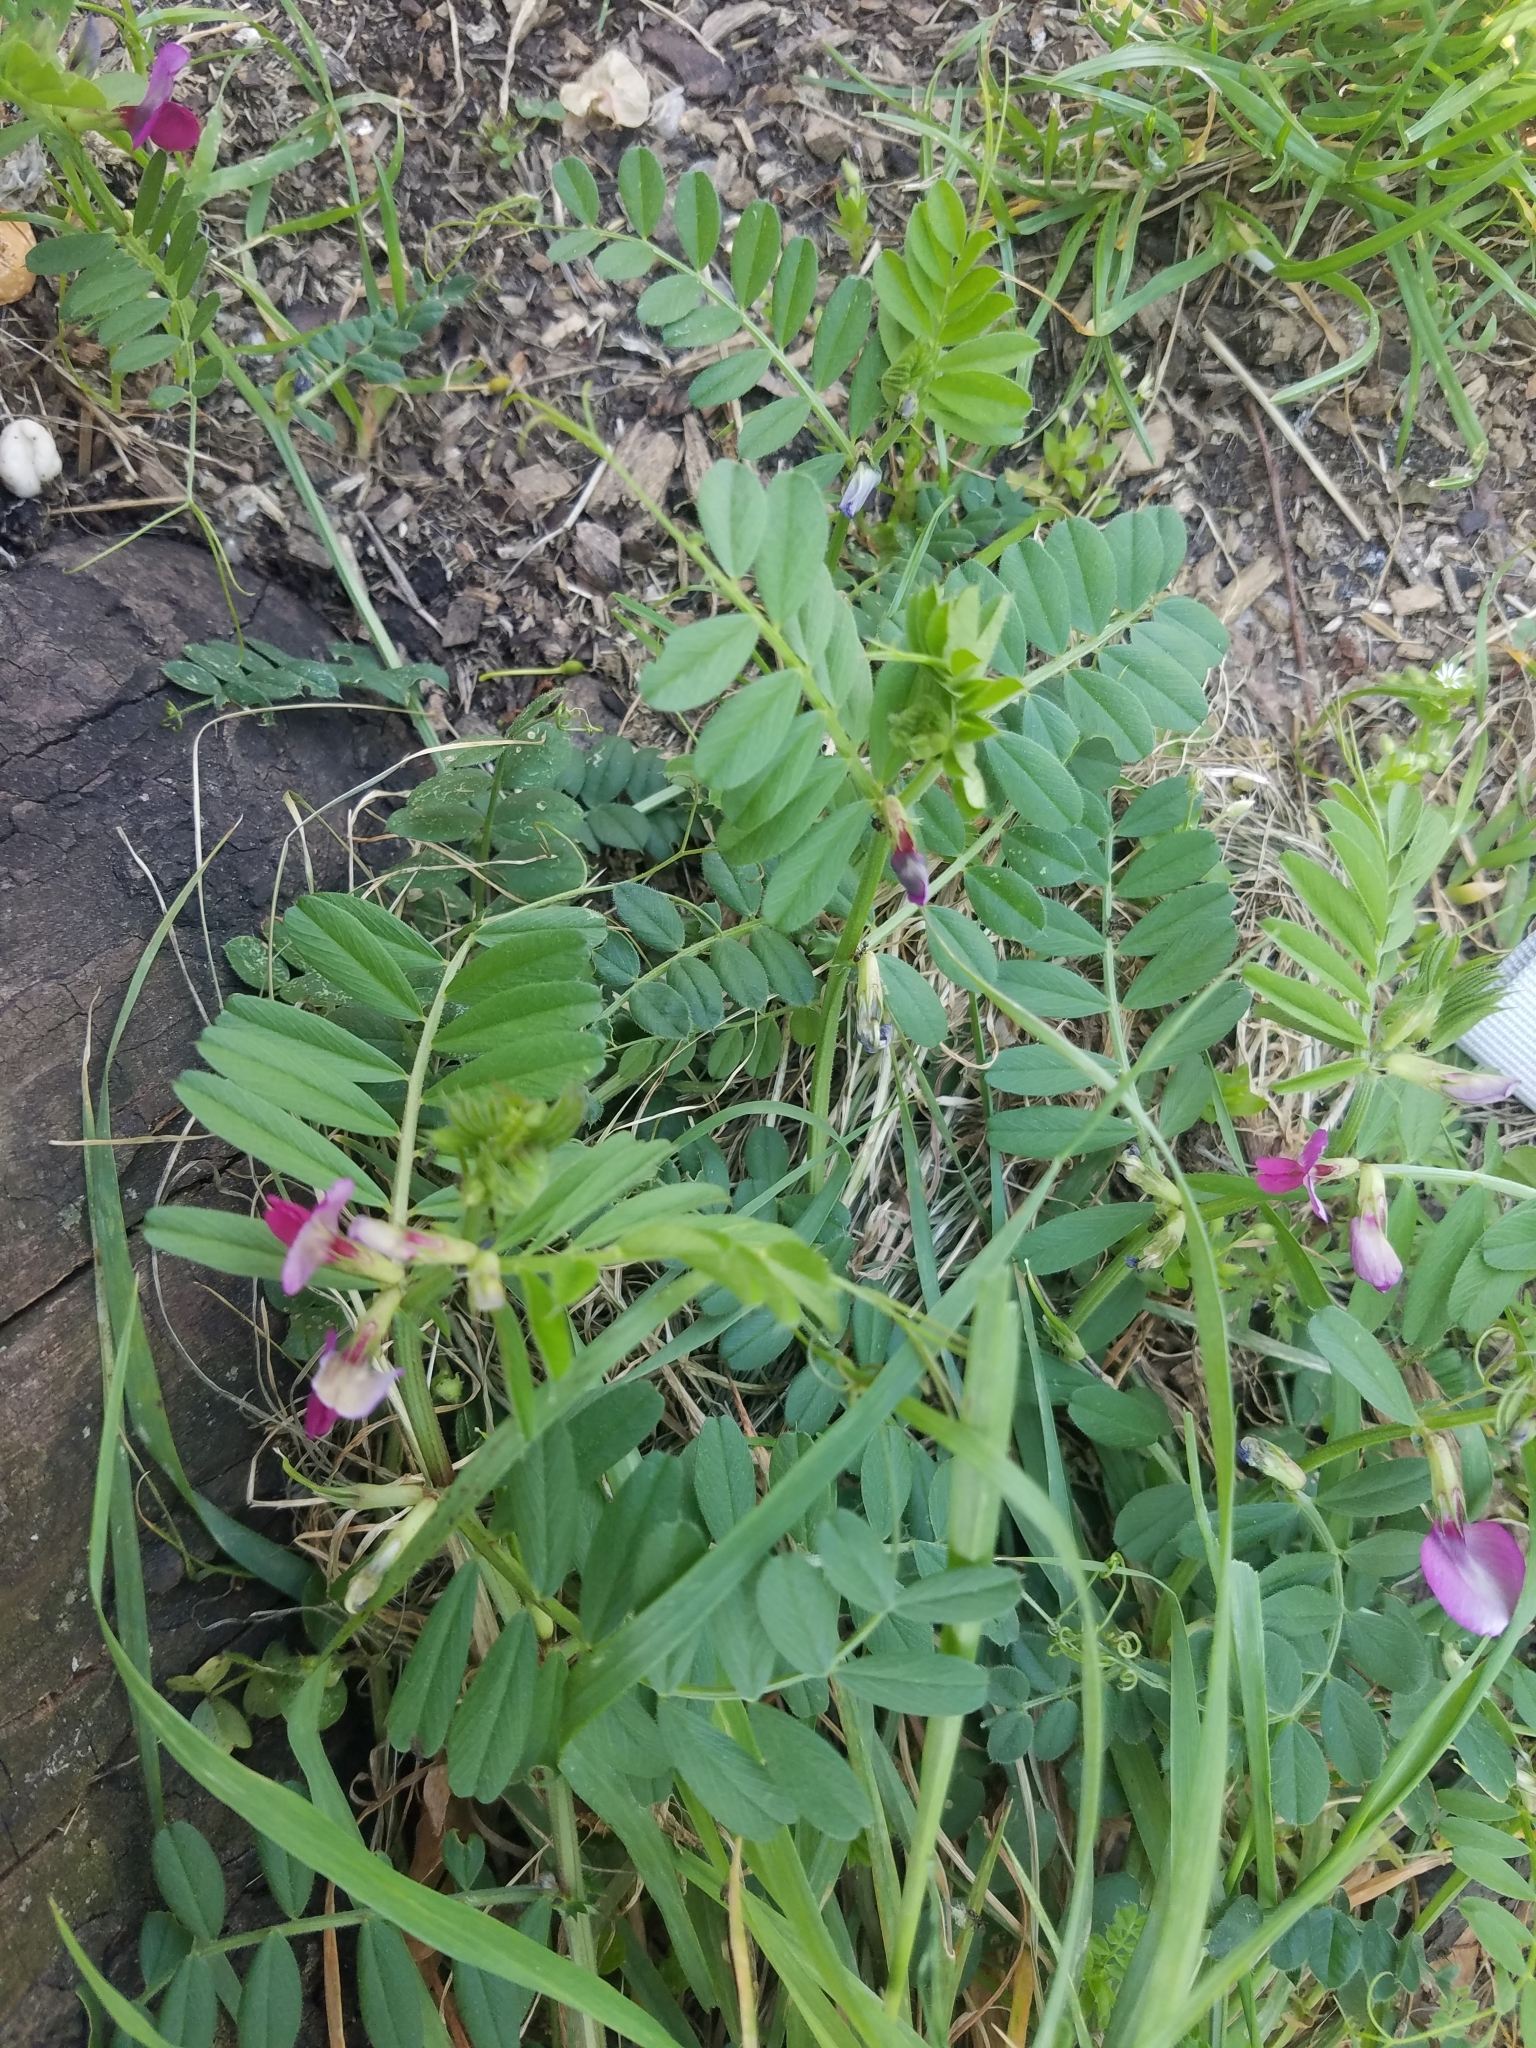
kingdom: Plantae
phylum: Tracheophyta
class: Magnoliopsida
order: Fabales
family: Fabaceae
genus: Vicia
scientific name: Vicia sativa
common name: Garden vetch
